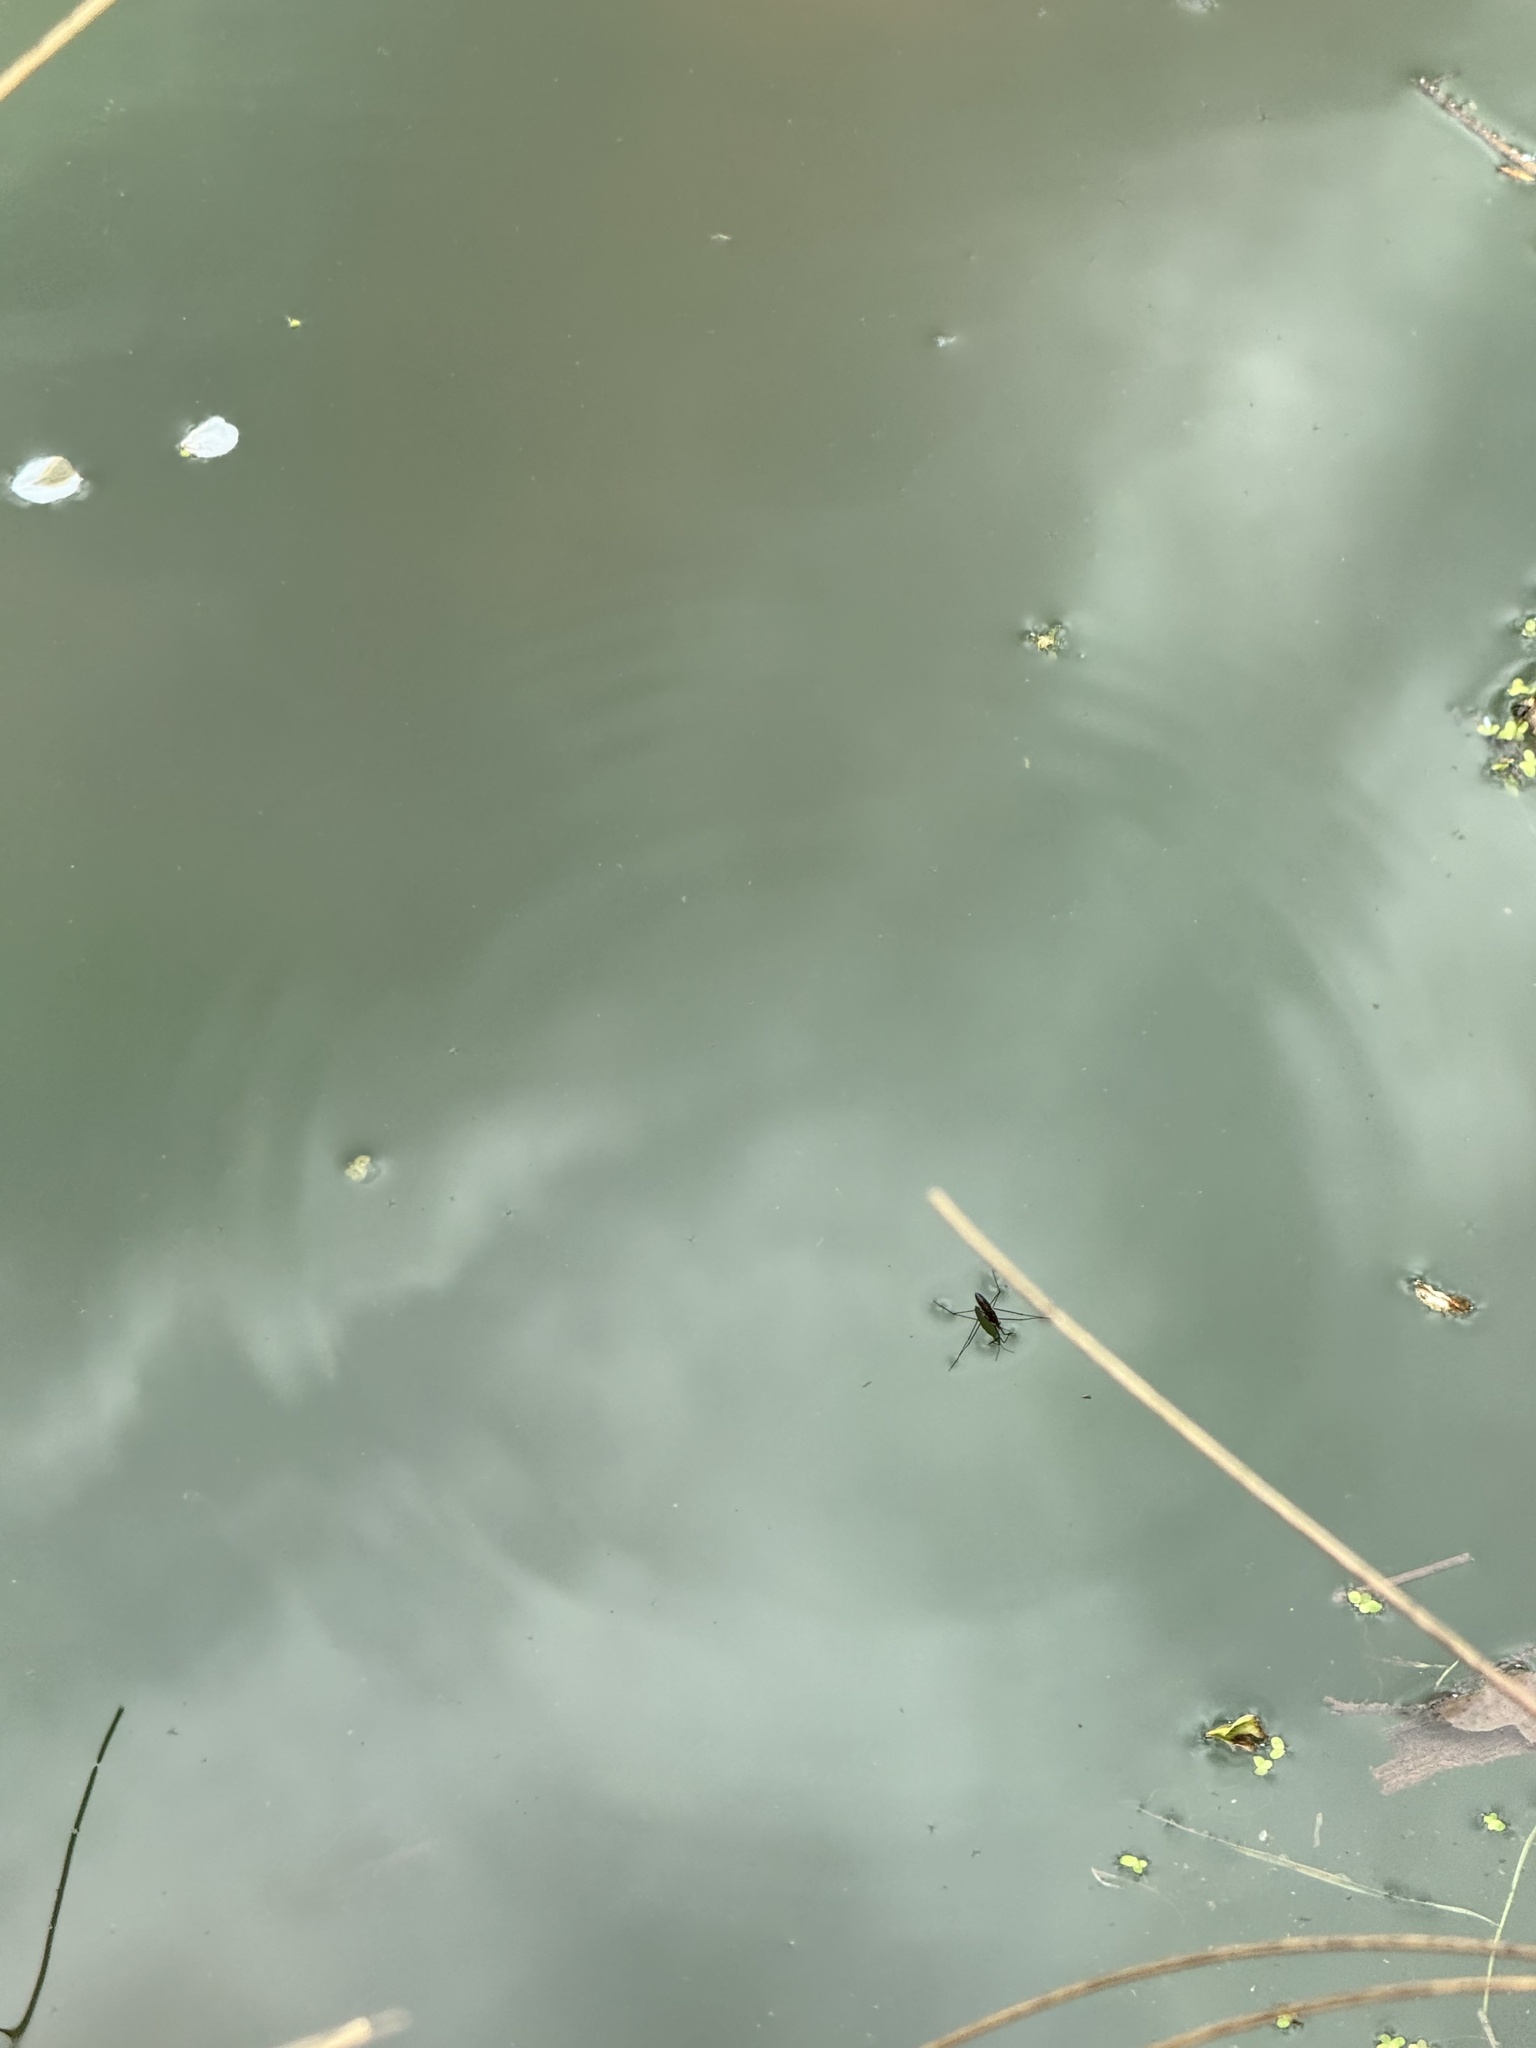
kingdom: Animalia
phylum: Arthropoda
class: Insecta
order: Hemiptera
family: Gerridae
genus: Gerris
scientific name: Gerris
